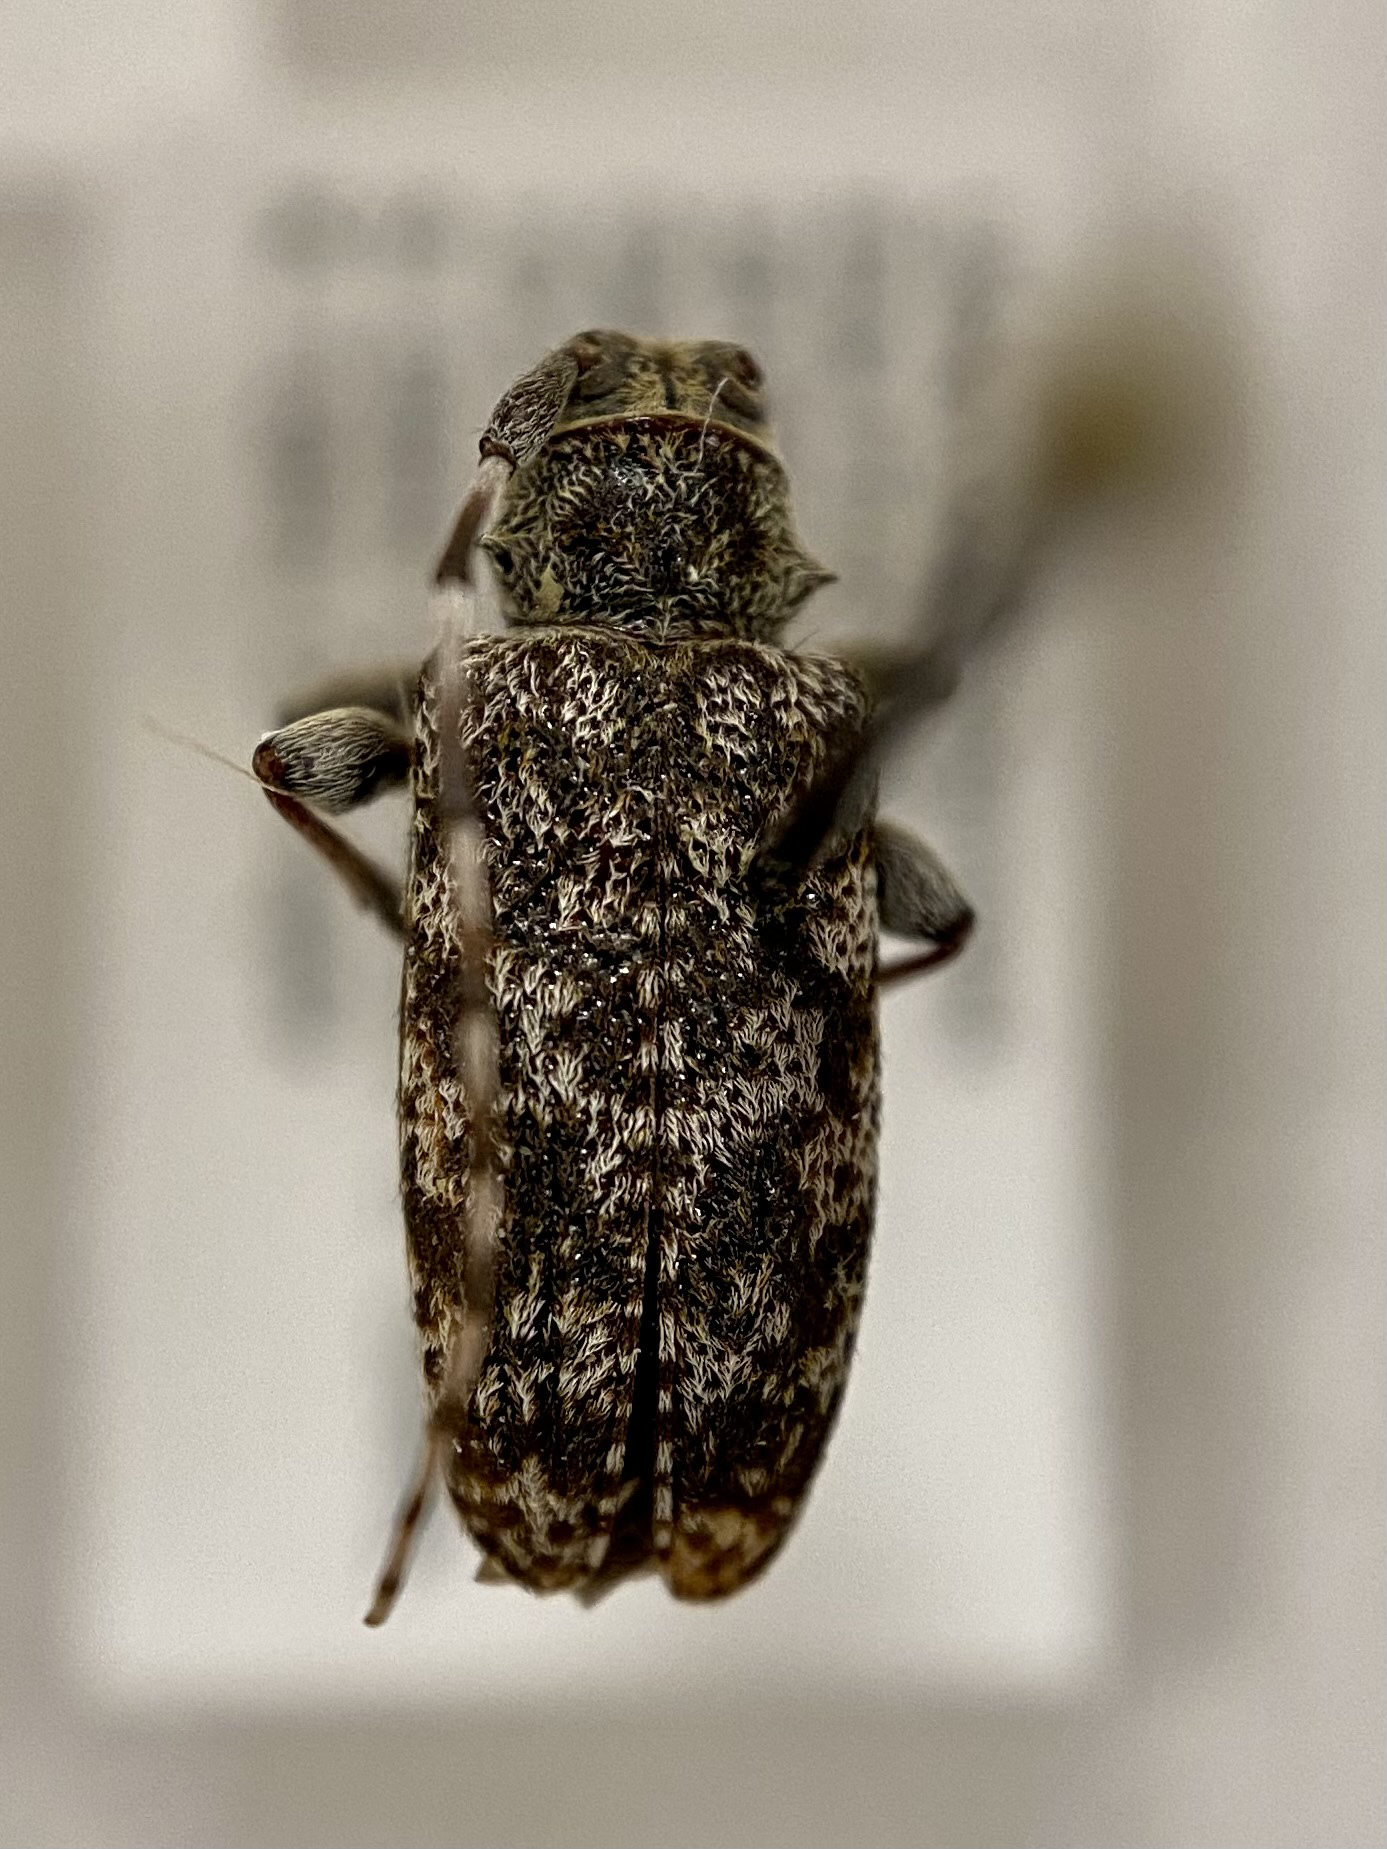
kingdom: Animalia
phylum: Arthropoda
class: Insecta
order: Coleoptera
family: Cerambycidae
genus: Oplosia
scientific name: Oplosia nubila
